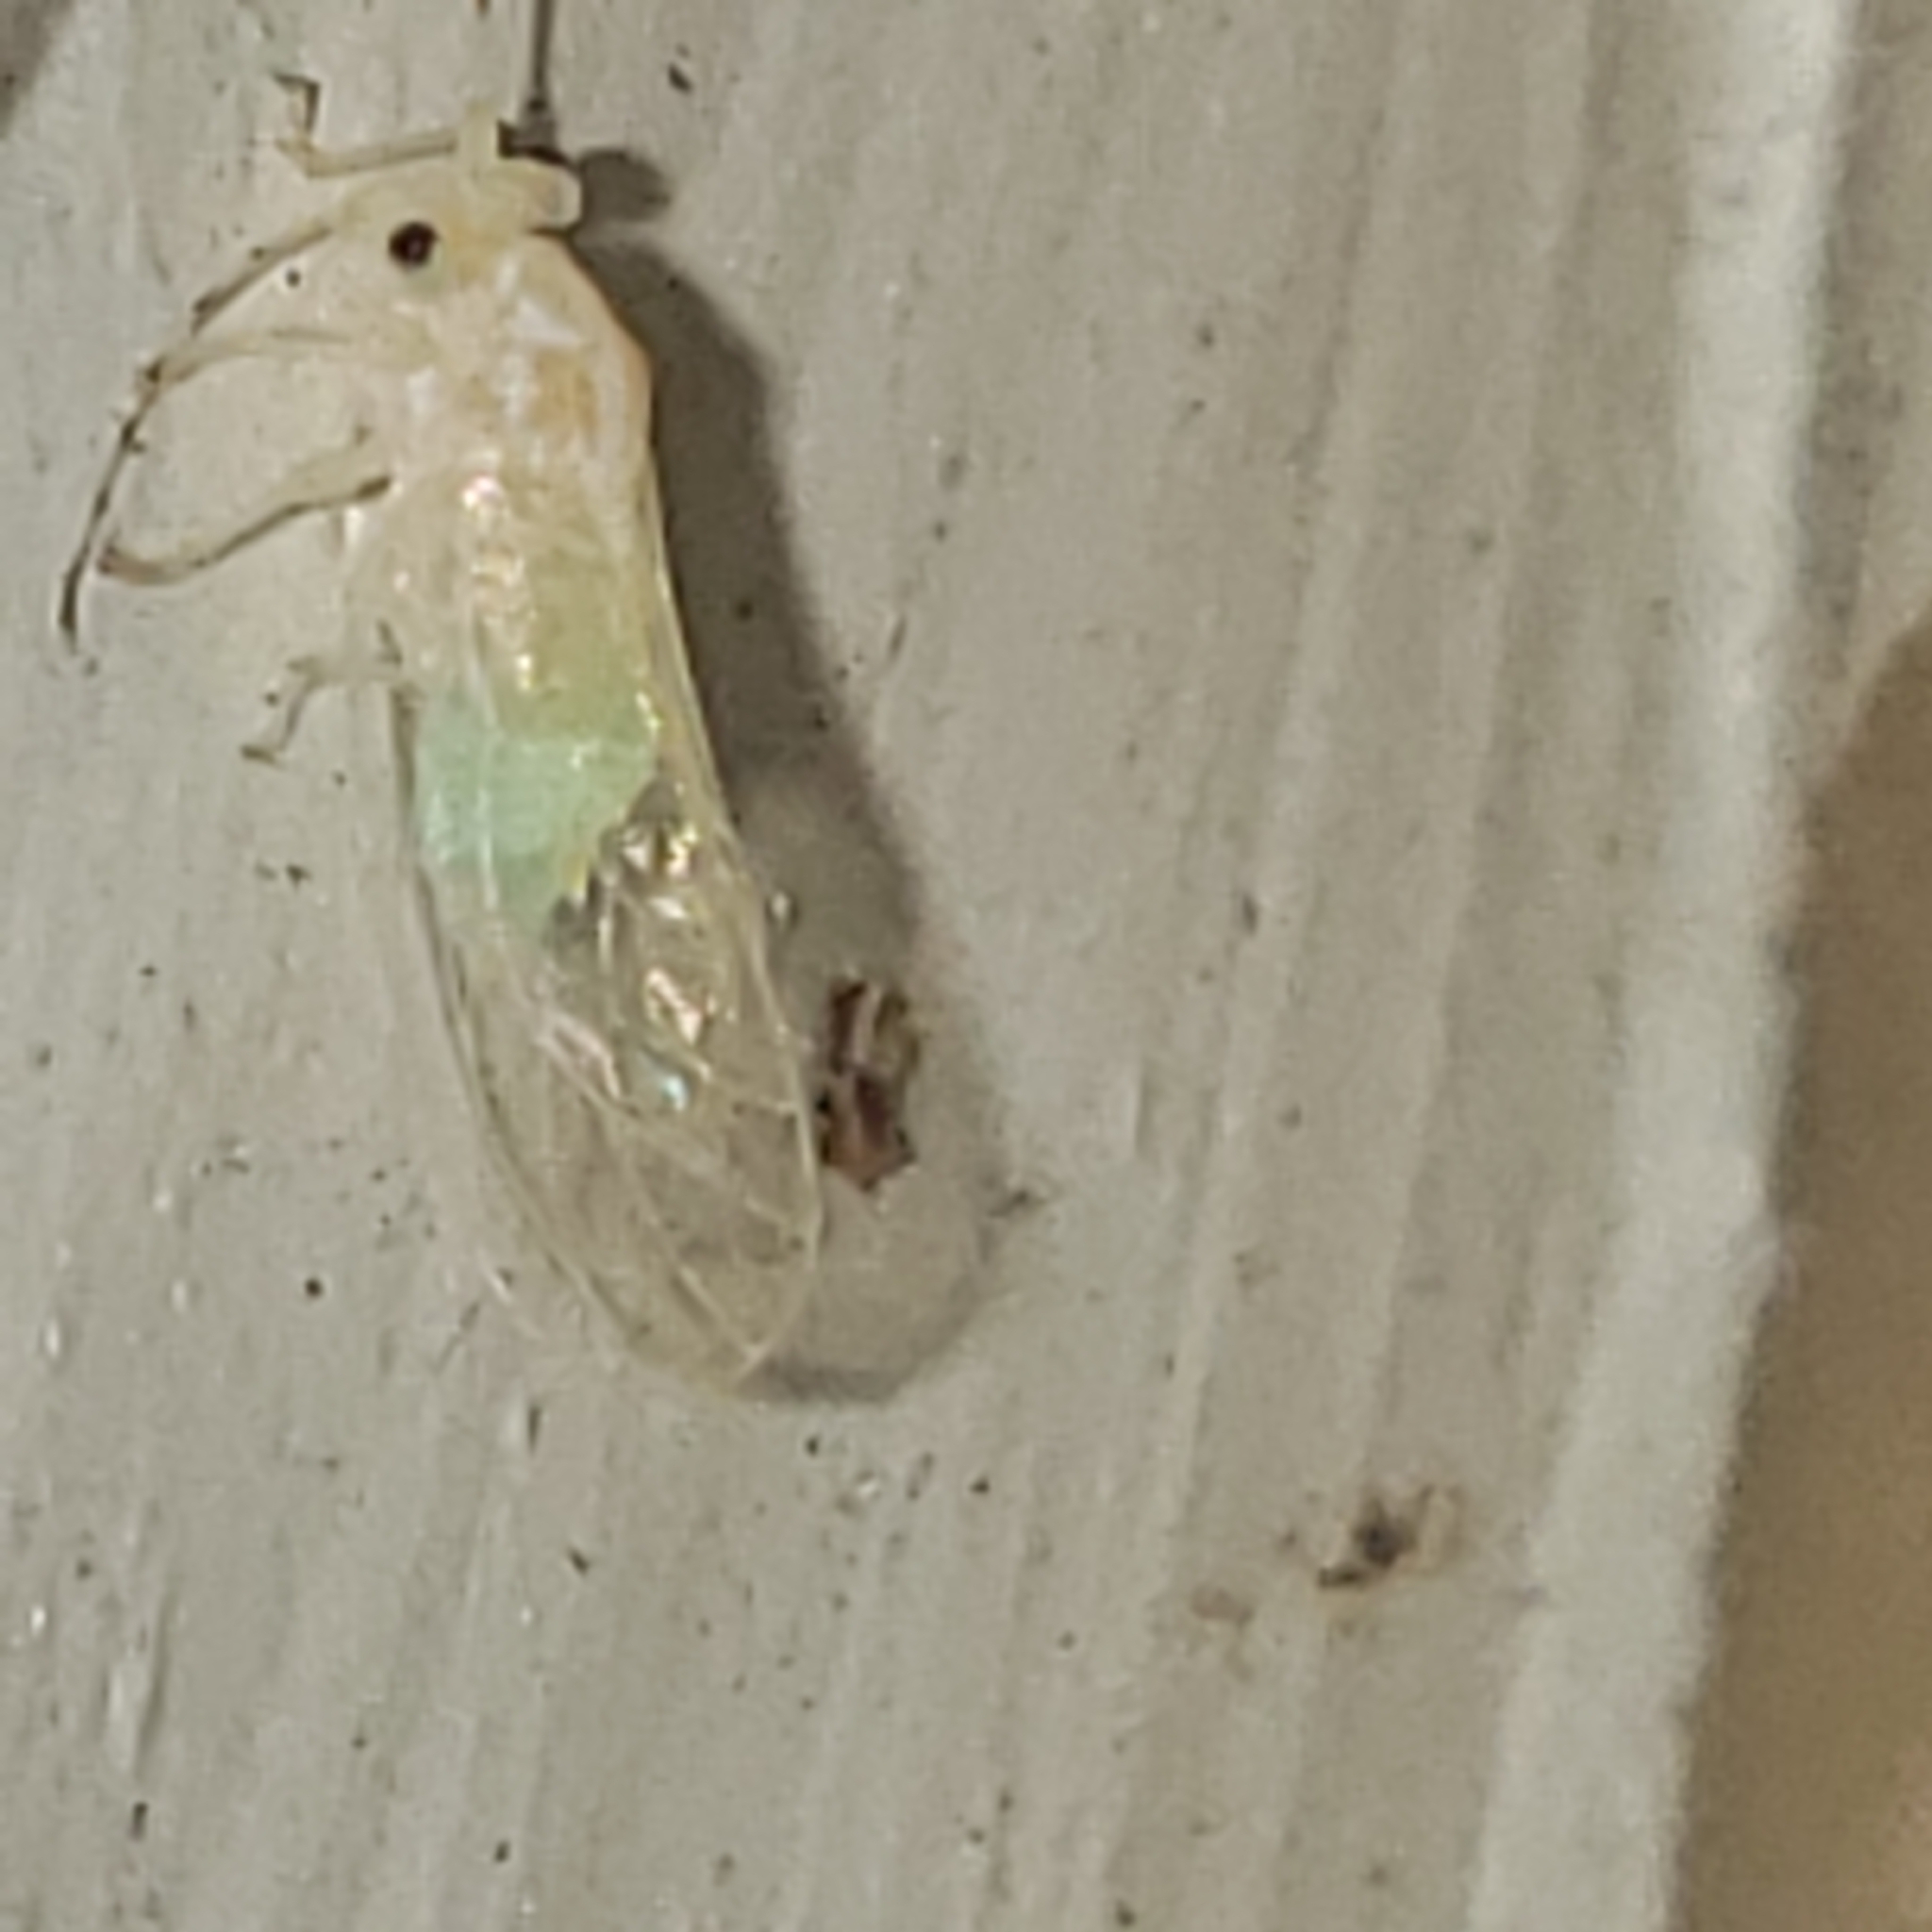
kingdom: Animalia
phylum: Arthropoda
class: Insecta
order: Hemiptera
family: Psyllidae
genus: Cacopsylla
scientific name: Cacopsylla annulata
